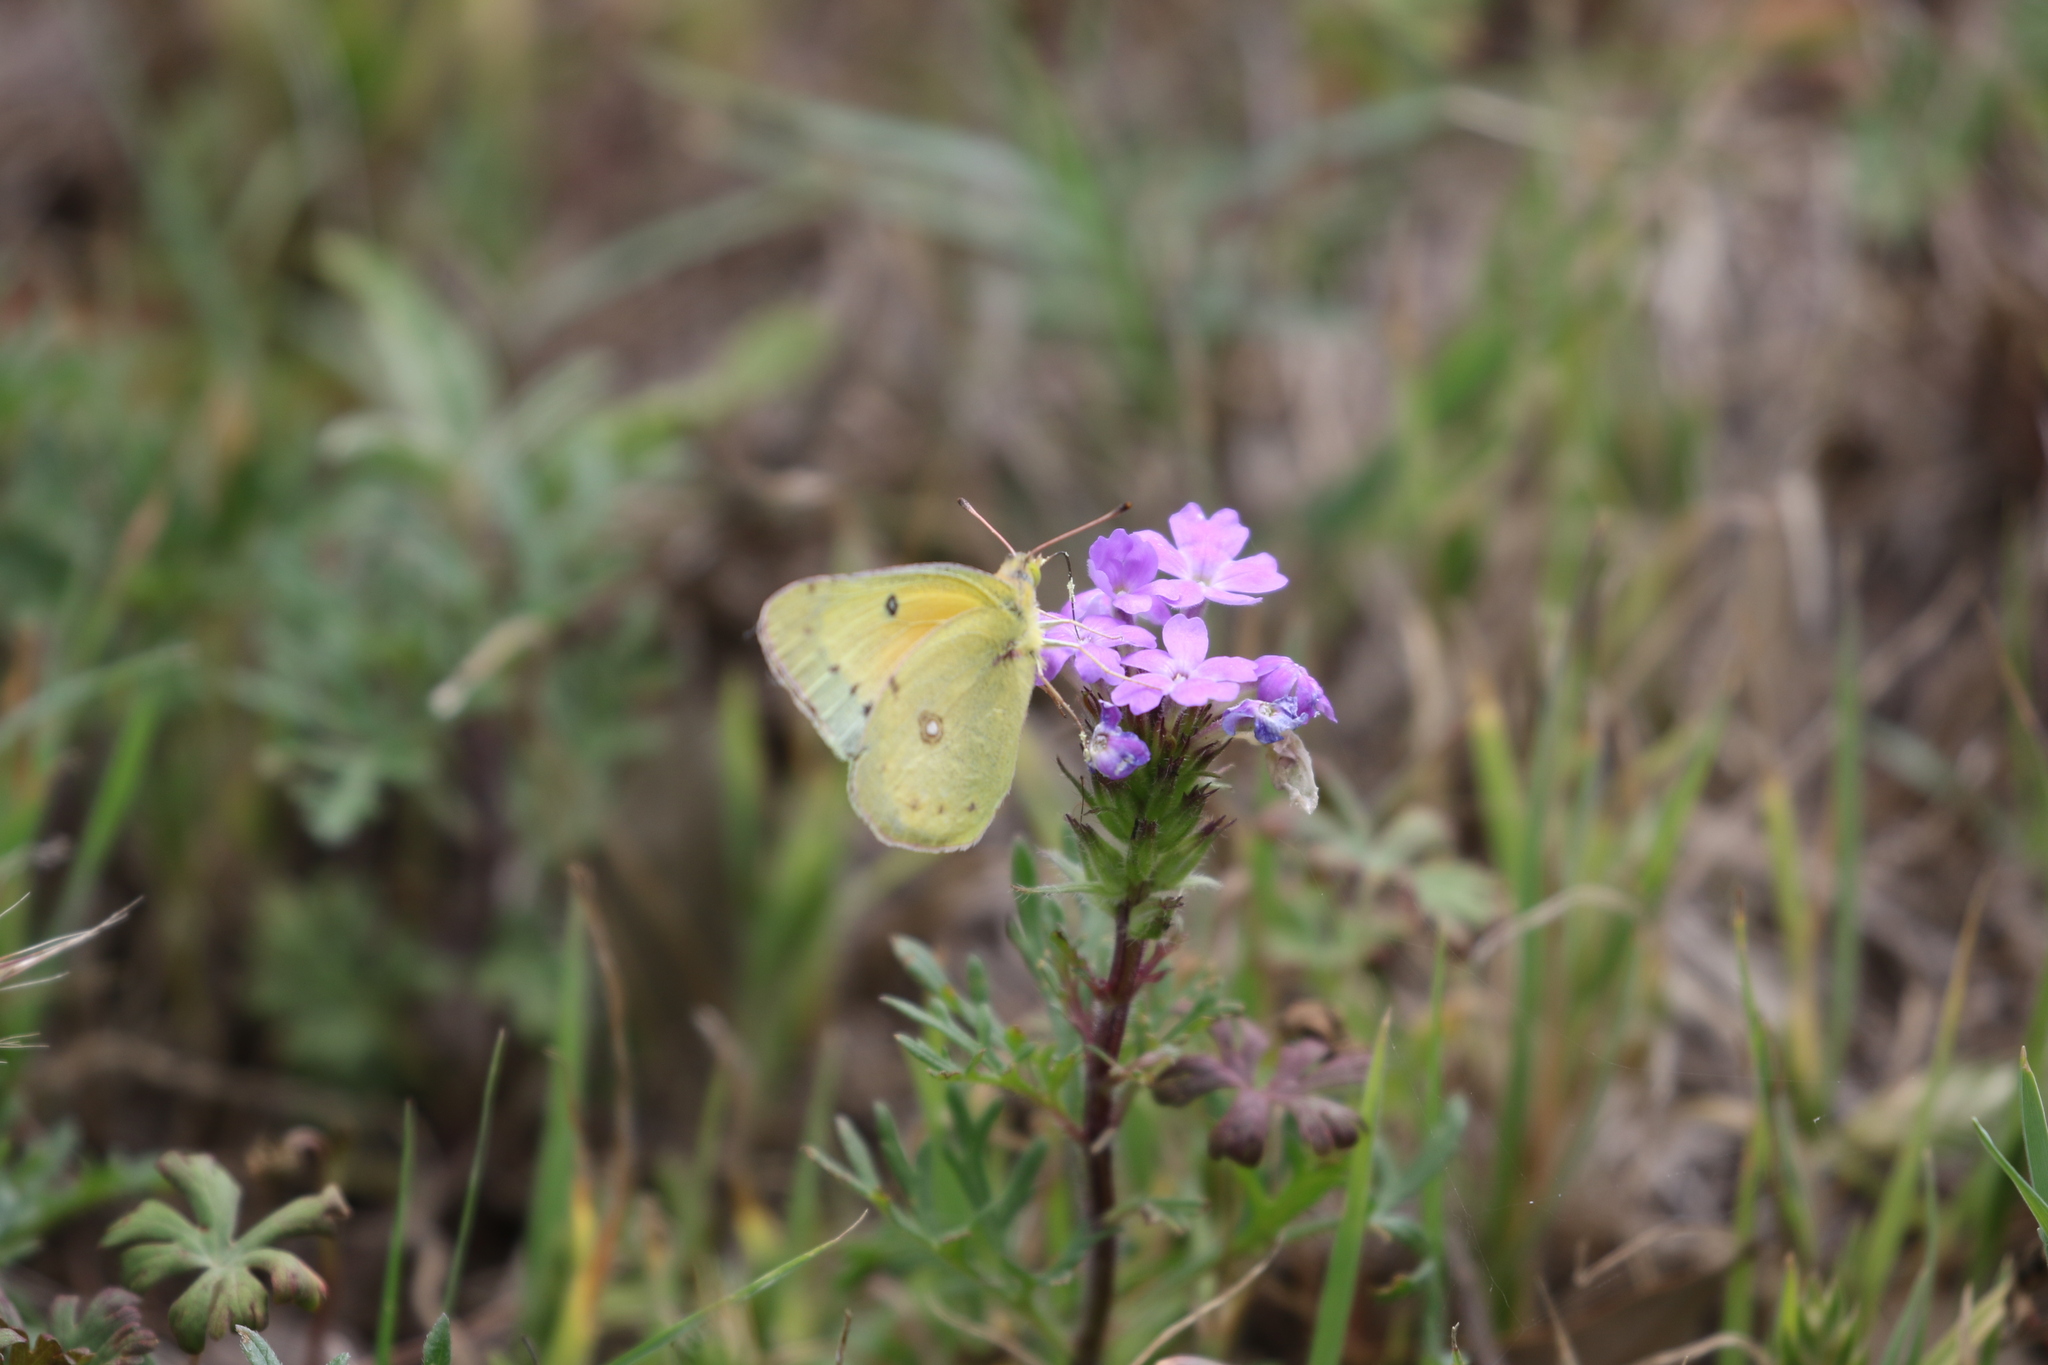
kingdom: Animalia
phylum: Arthropoda
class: Insecta
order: Lepidoptera
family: Pieridae
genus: Colias
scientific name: Colias eurytheme
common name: Alfalfa butterfly
